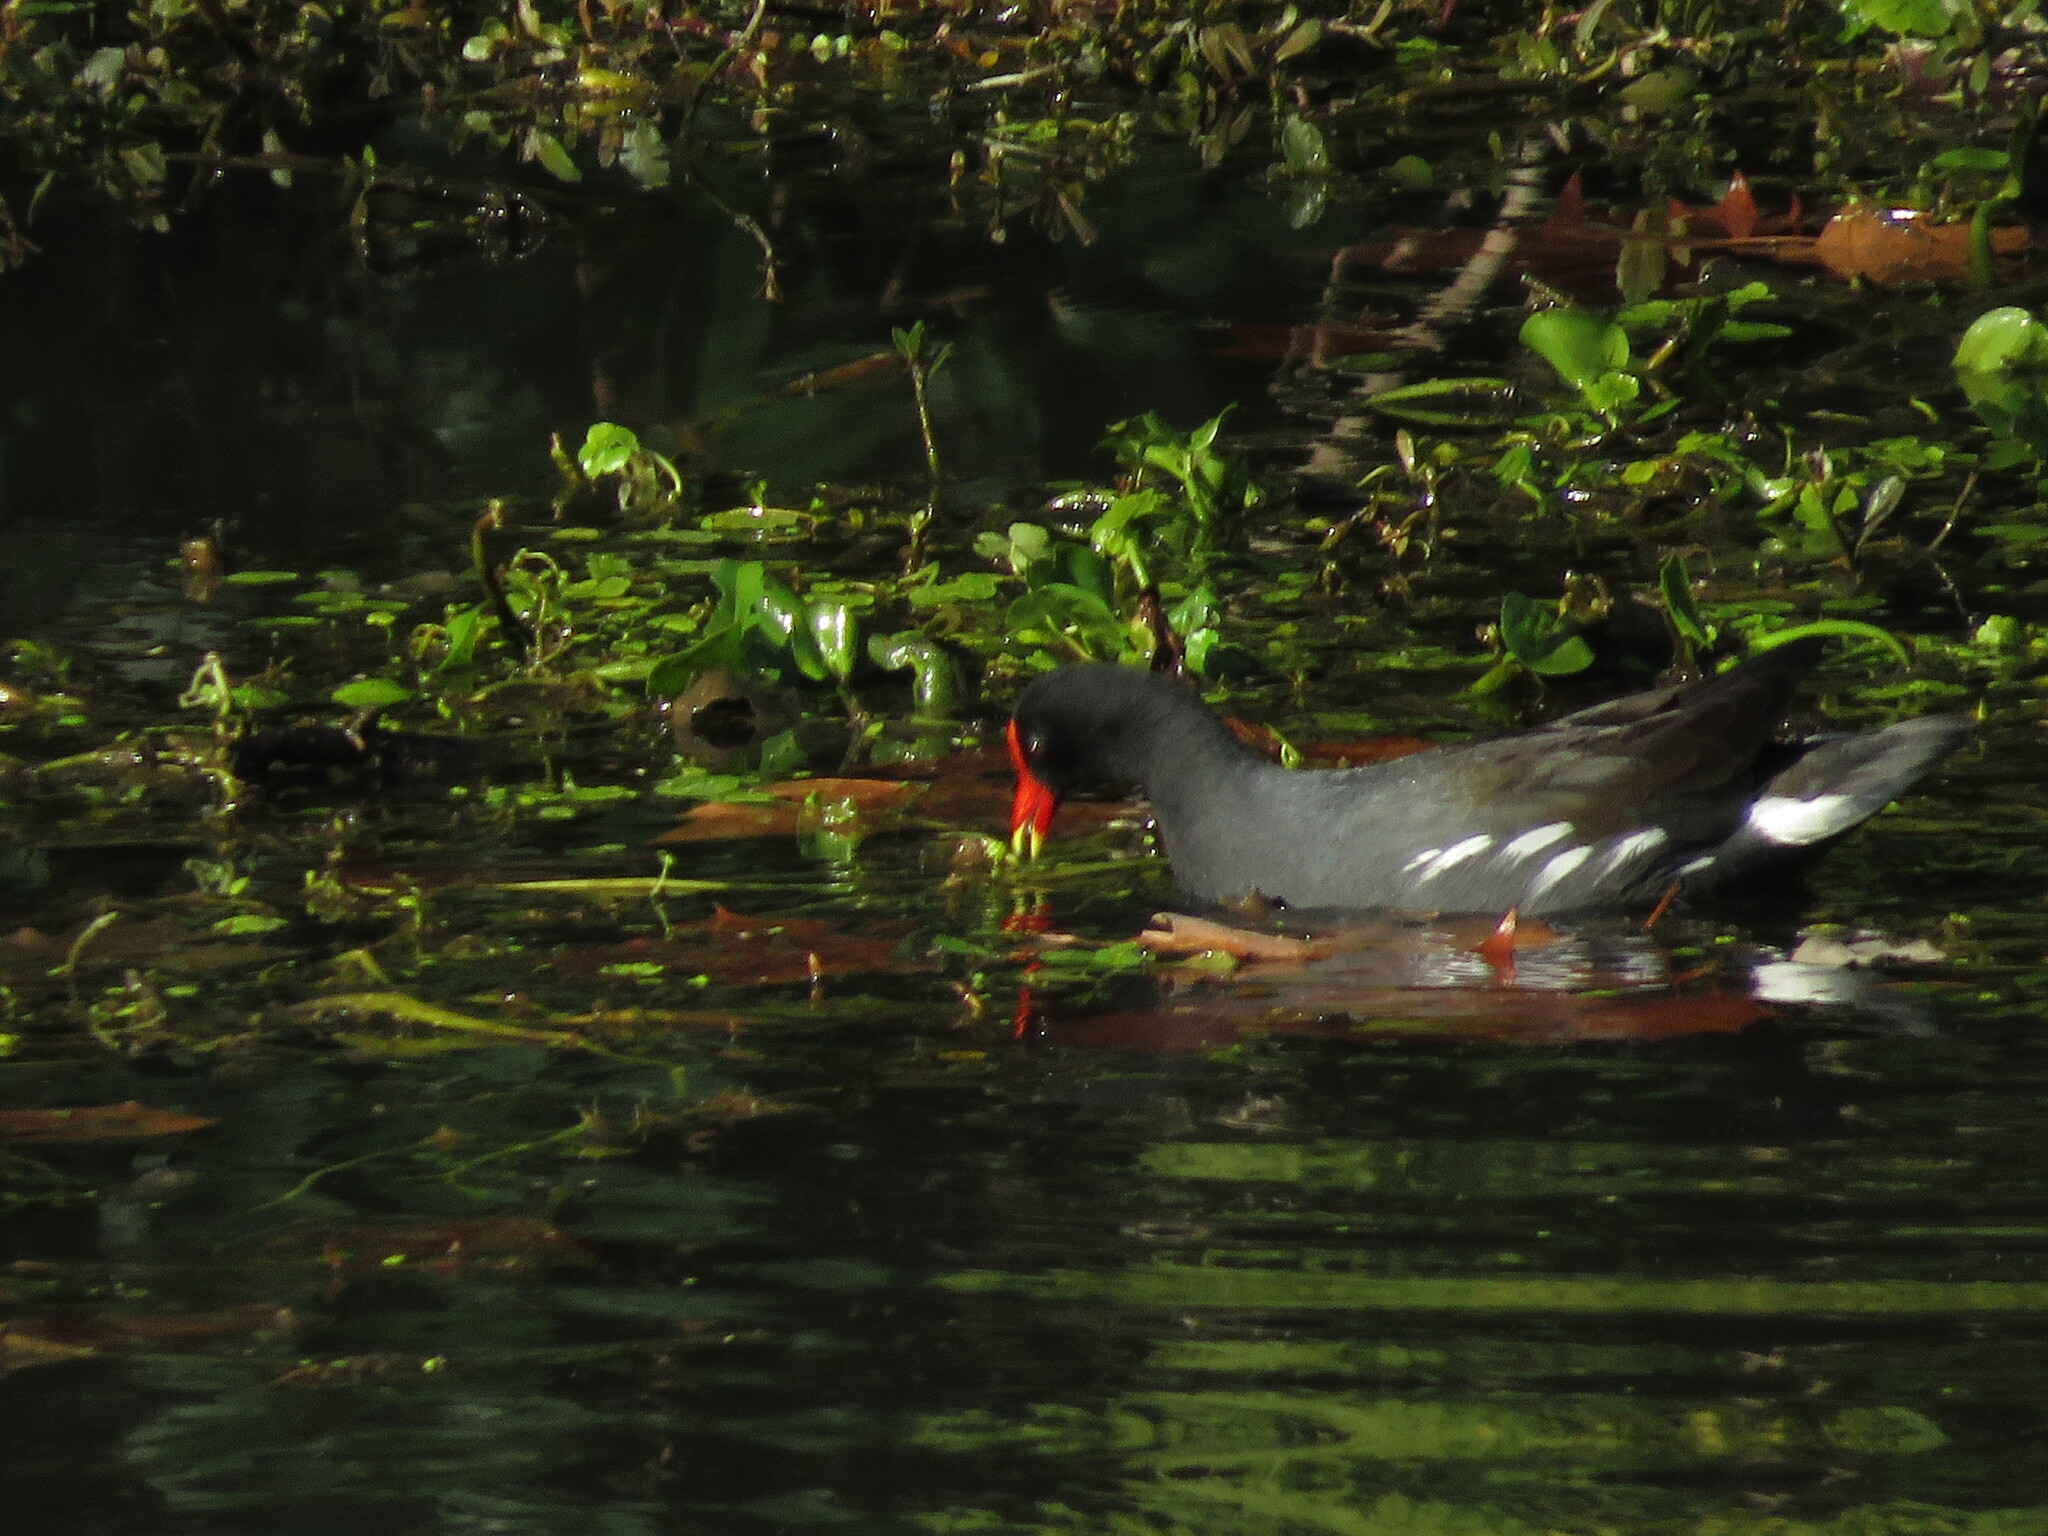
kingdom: Animalia
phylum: Chordata
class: Aves
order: Gruiformes
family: Rallidae
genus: Gallinula
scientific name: Gallinula chloropus
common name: Common moorhen
